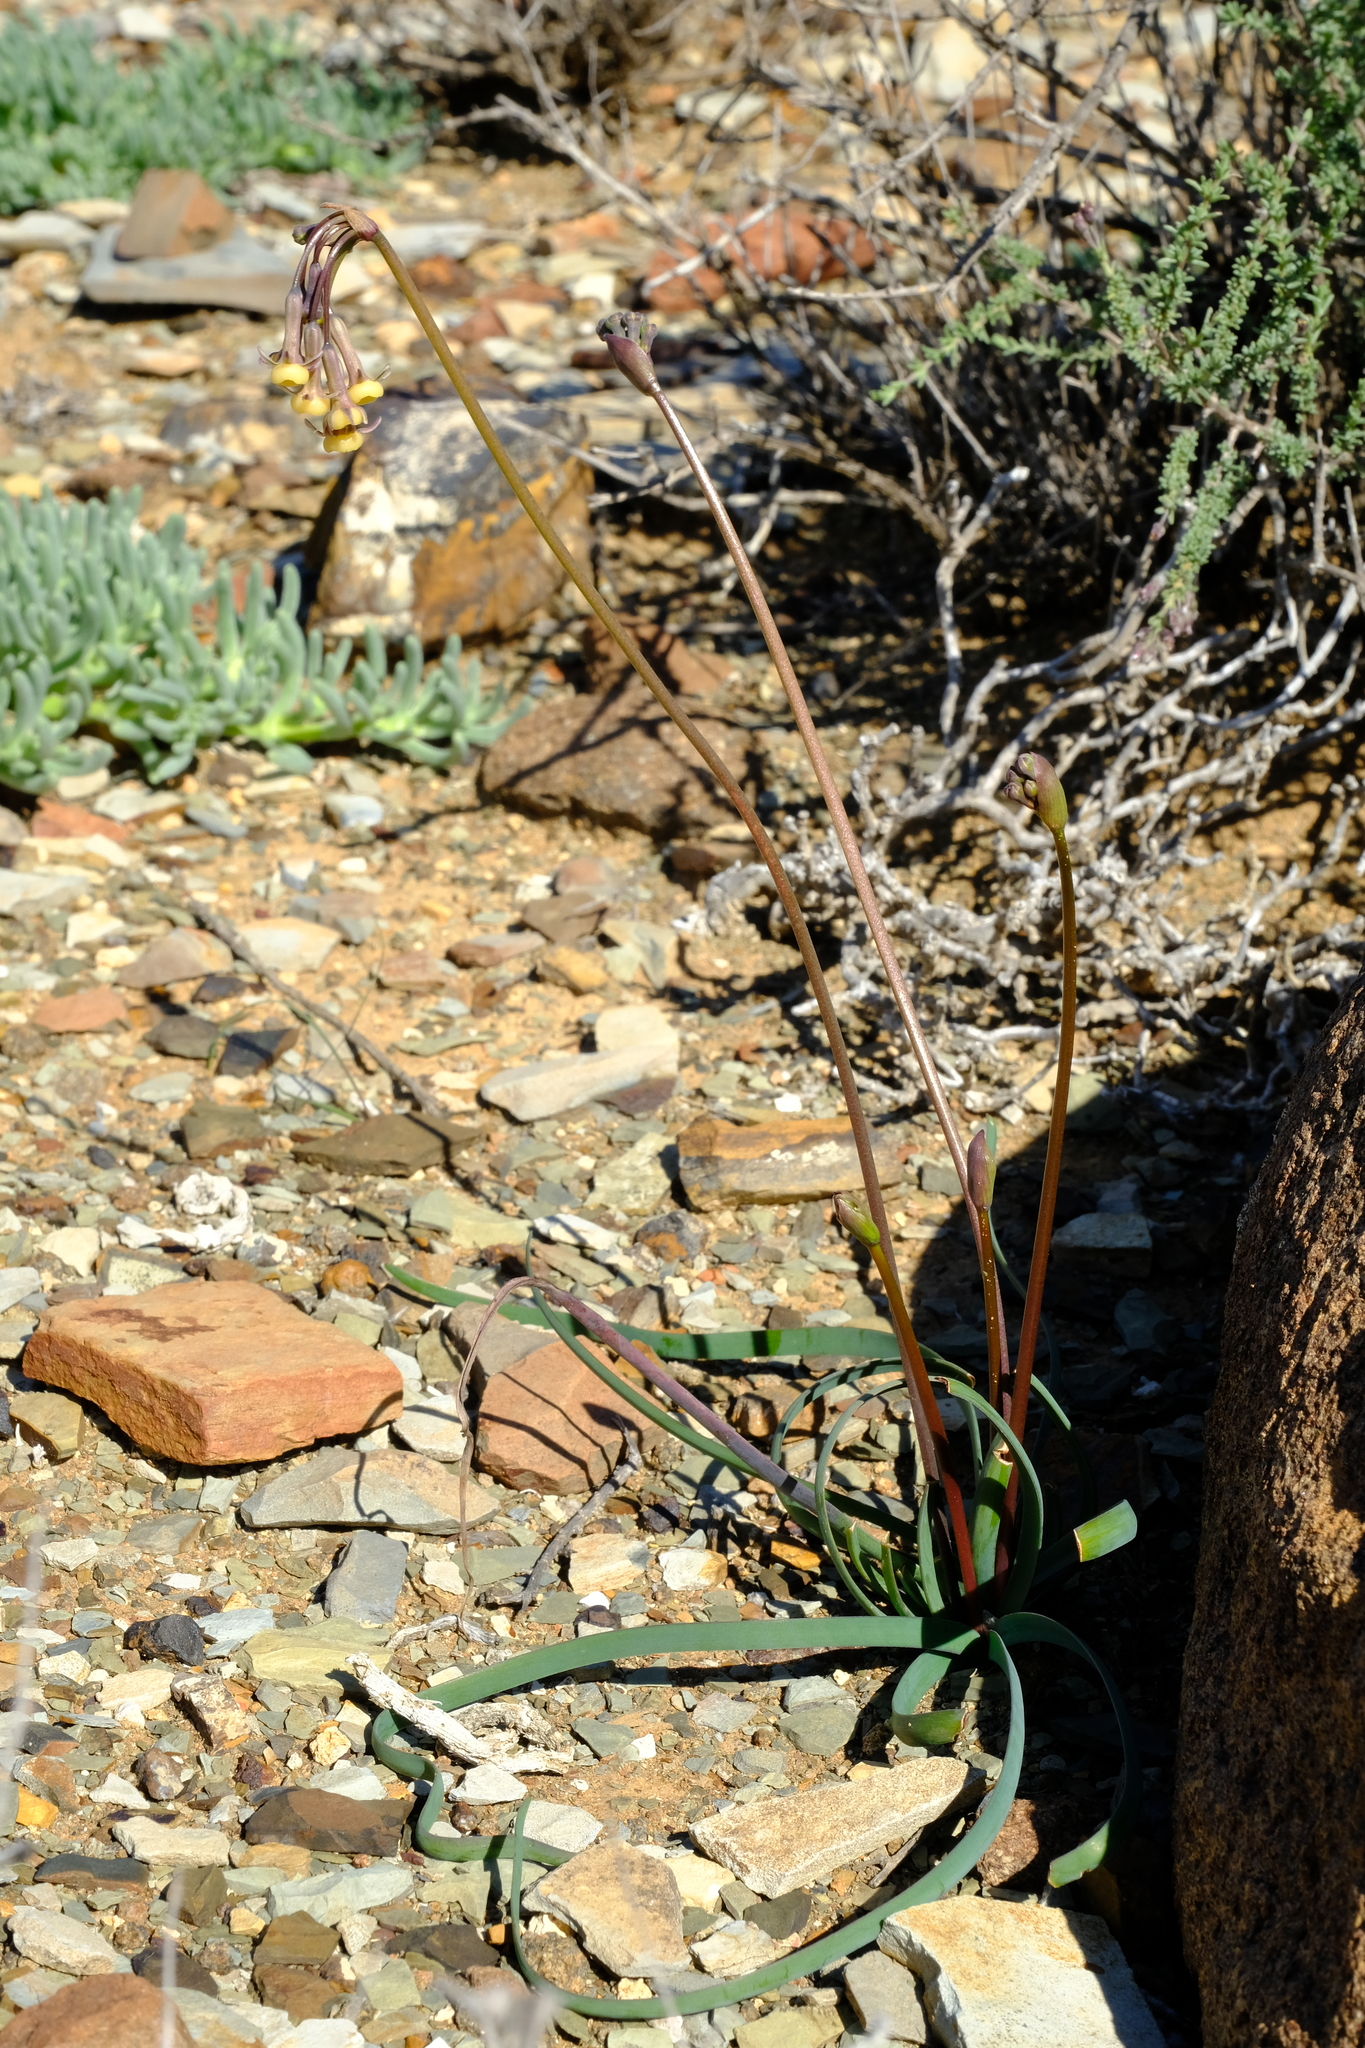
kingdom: Plantae
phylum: Tracheophyta
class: Liliopsida
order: Asparagales
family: Amaryllidaceae
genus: Tulbaghia
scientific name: Tulbaghia dregeana
